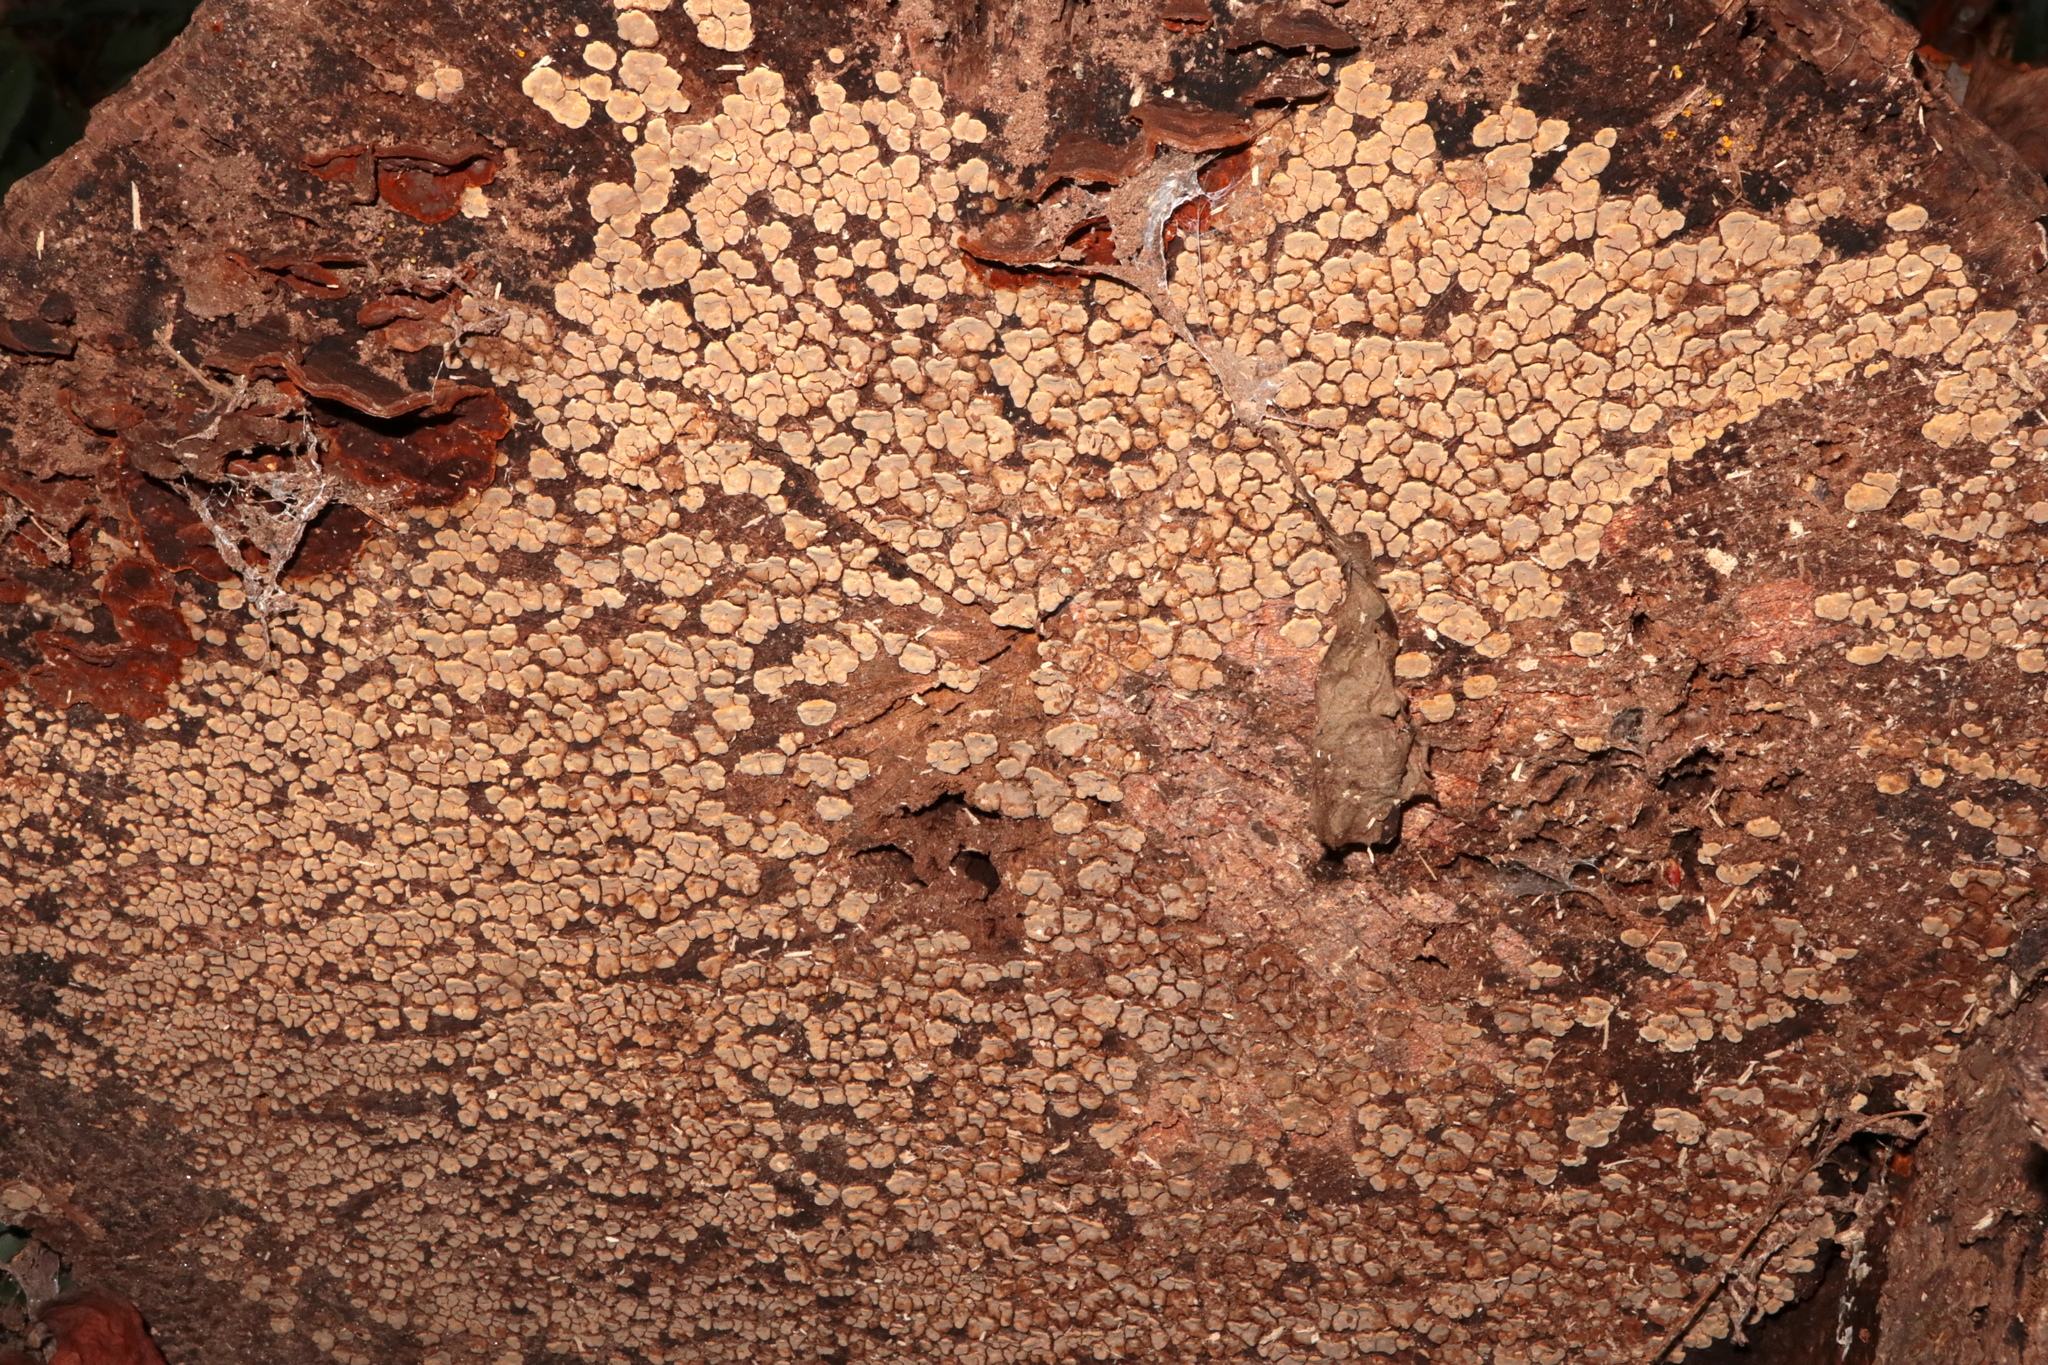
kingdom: Fungi
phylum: Basidiomycota
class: Agaricomycetes
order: Russulales
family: Stereaceae
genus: Xylobolus
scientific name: Xylobolus frustulatus
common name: Ceramic parchment
